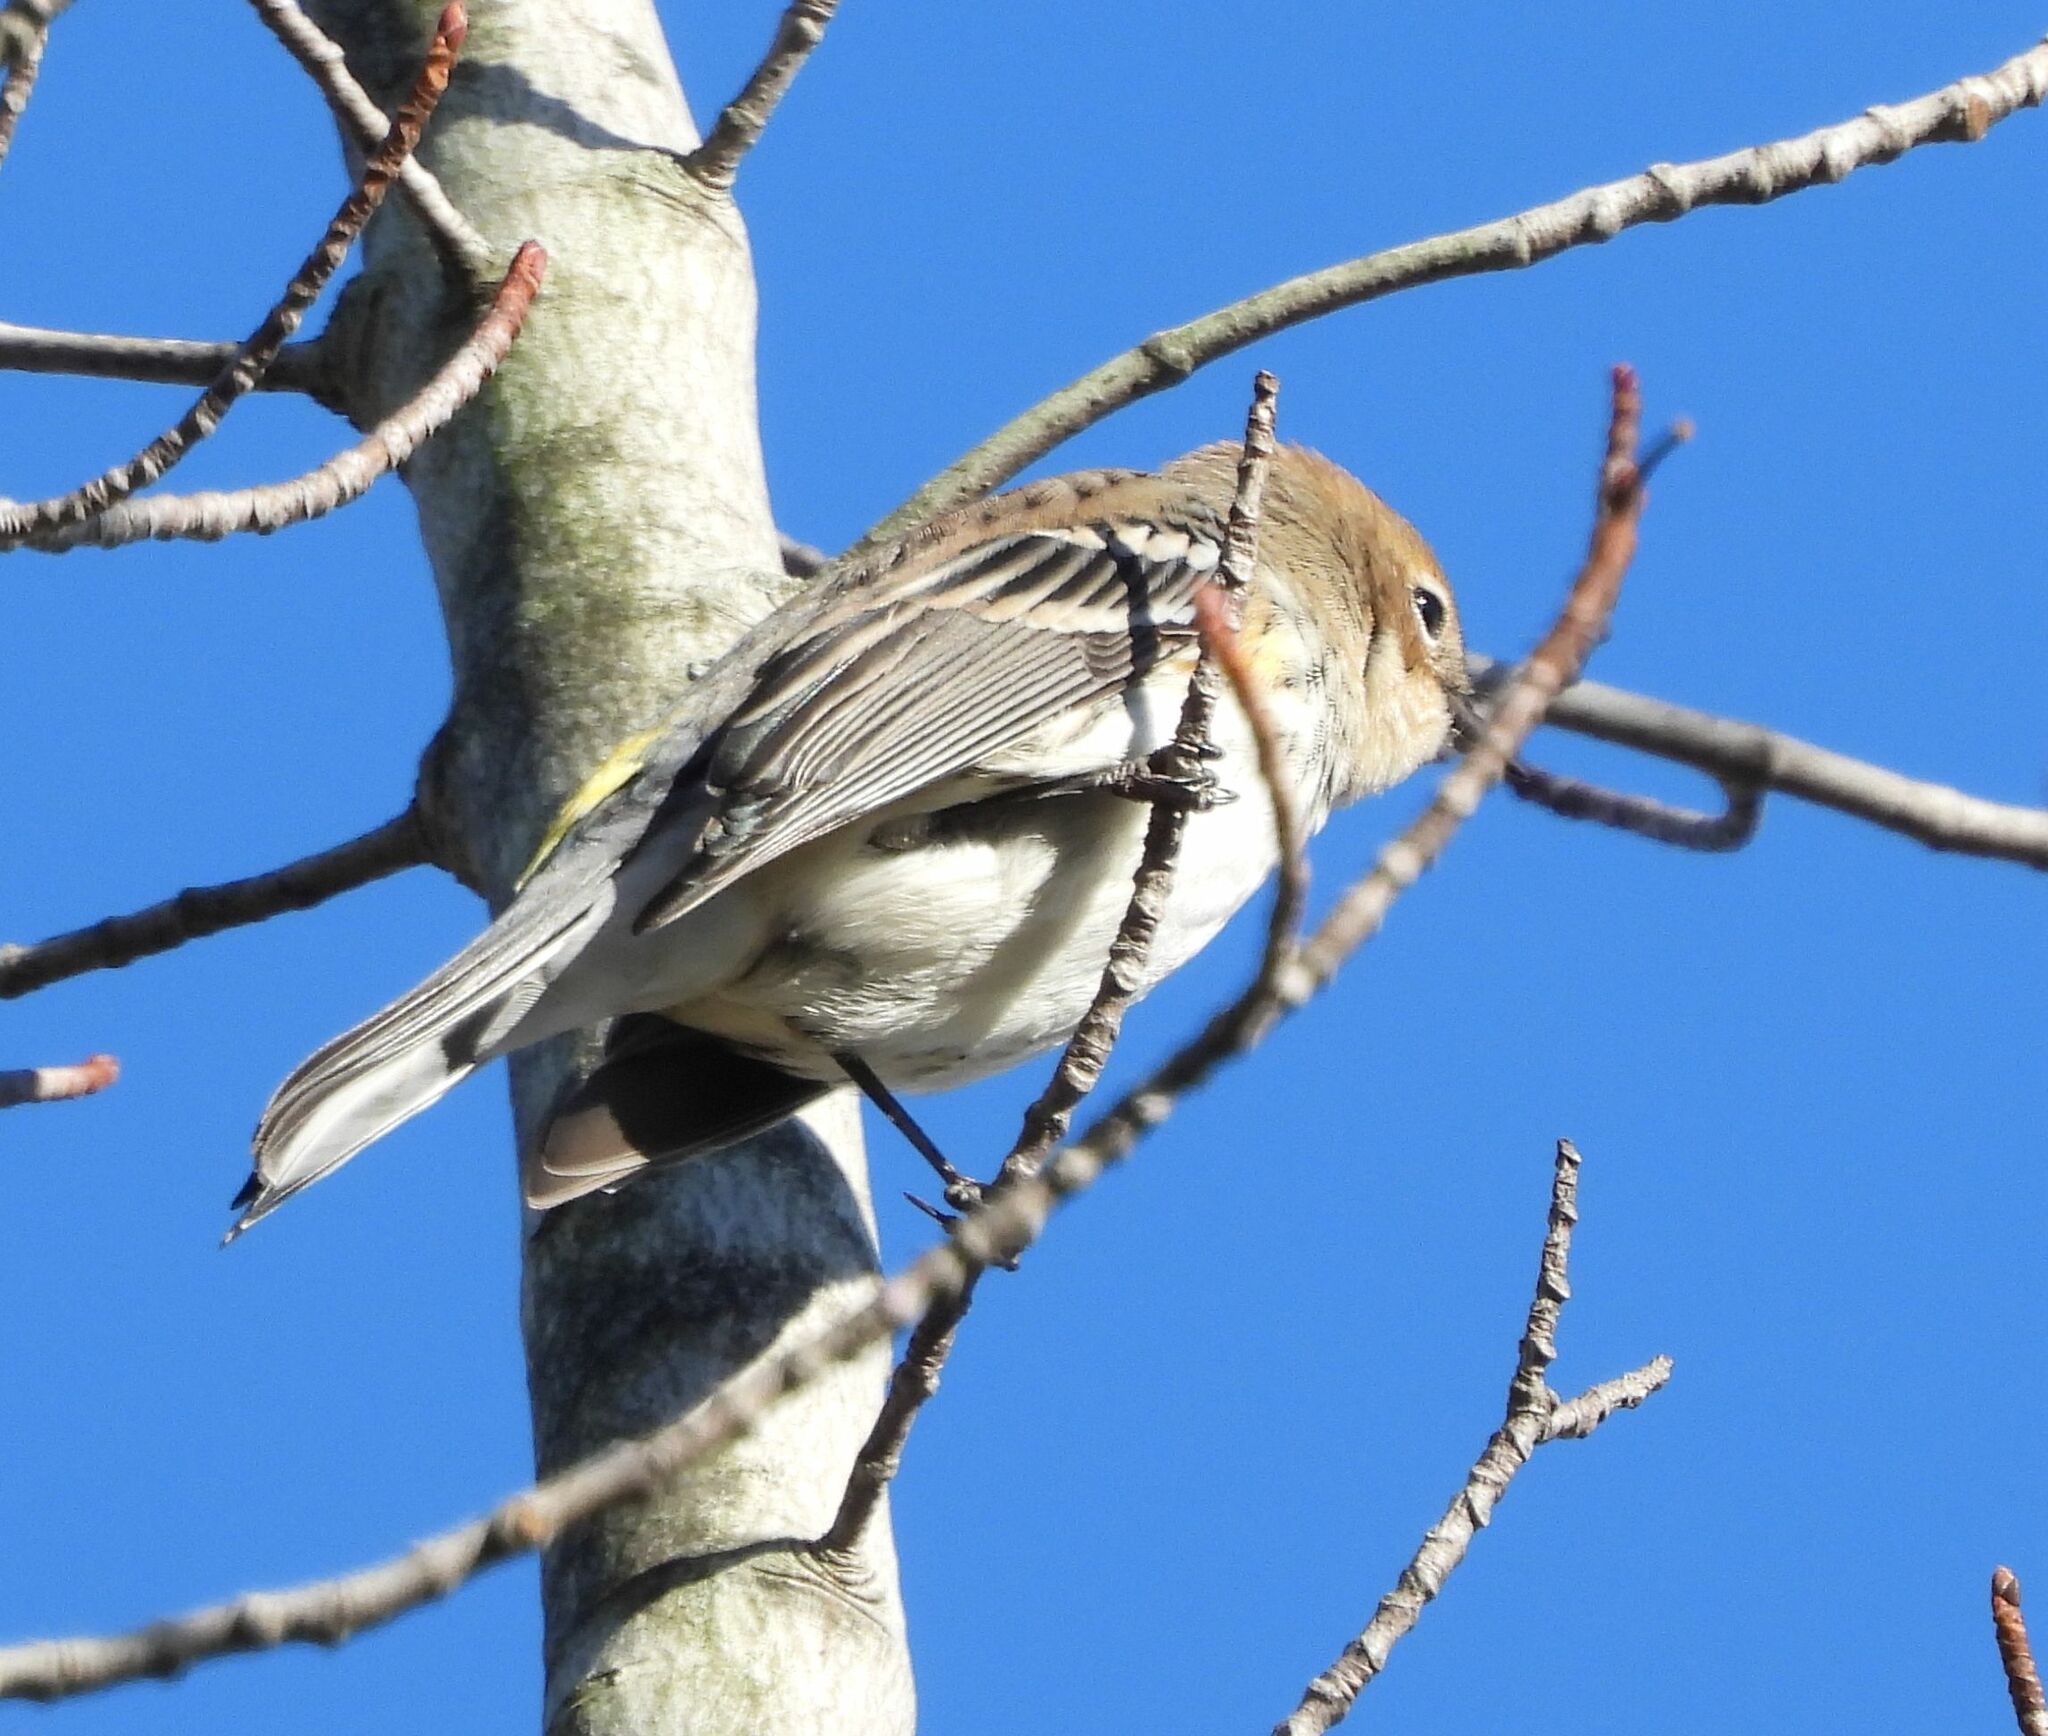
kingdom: Animalia
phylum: Chordata
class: Aves
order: Passeriformes
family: Parulidae
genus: Setophaga
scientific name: Setophaga coronata
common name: Myrtle warbler
